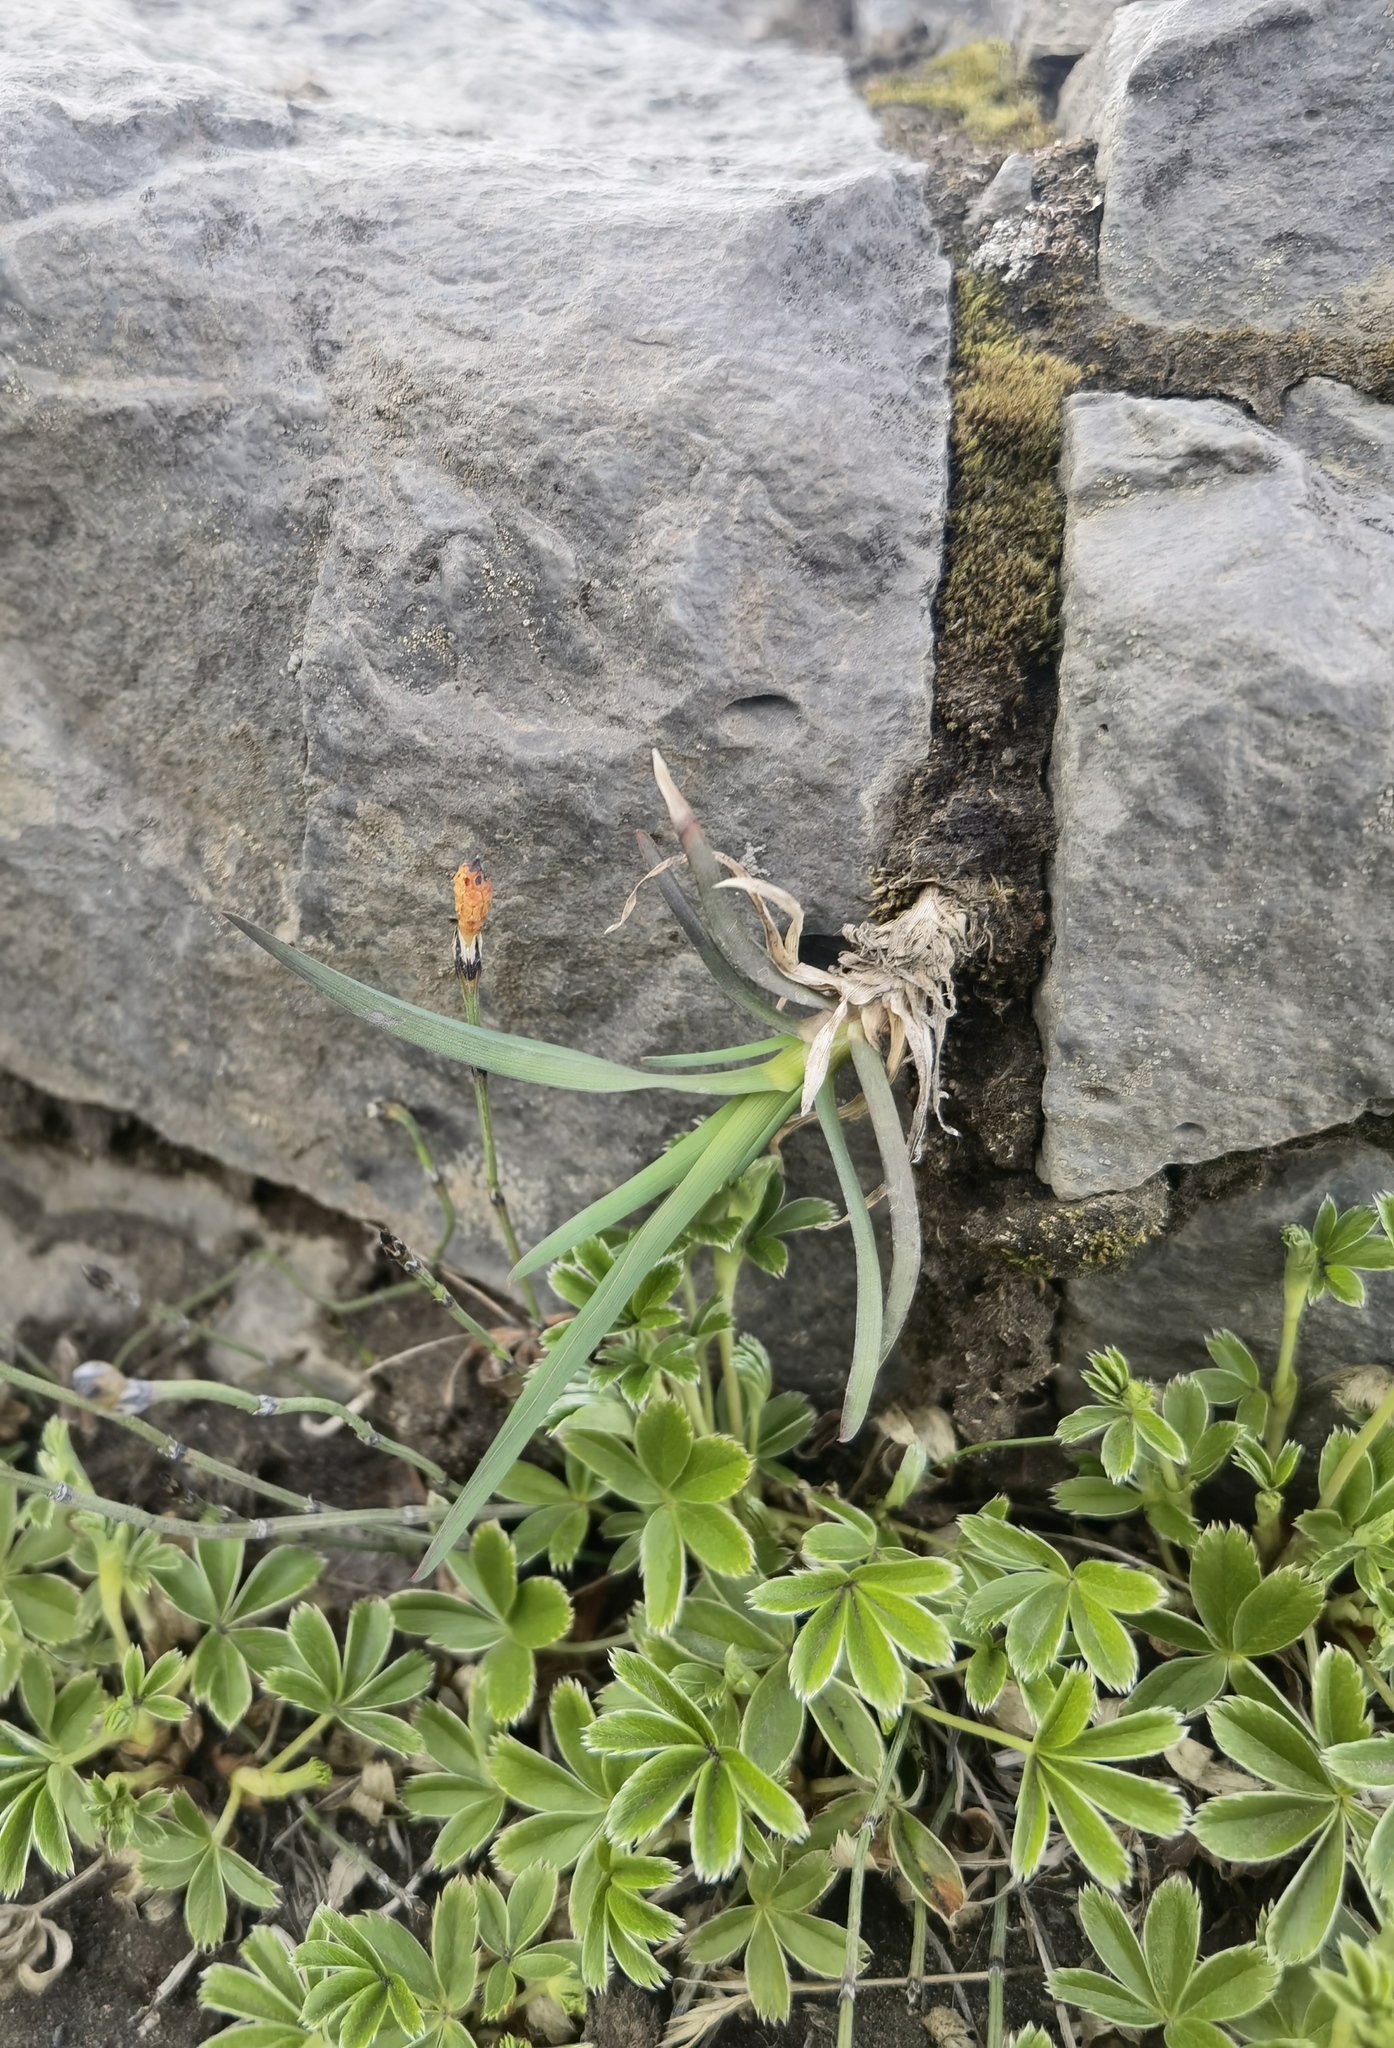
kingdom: Plantae
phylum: Tracheophyta
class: Magnoliopsida
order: Rosales
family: Rosaceae
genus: Alchemilla
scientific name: Alchemilla alpina
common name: Alpine lady's-mantle
